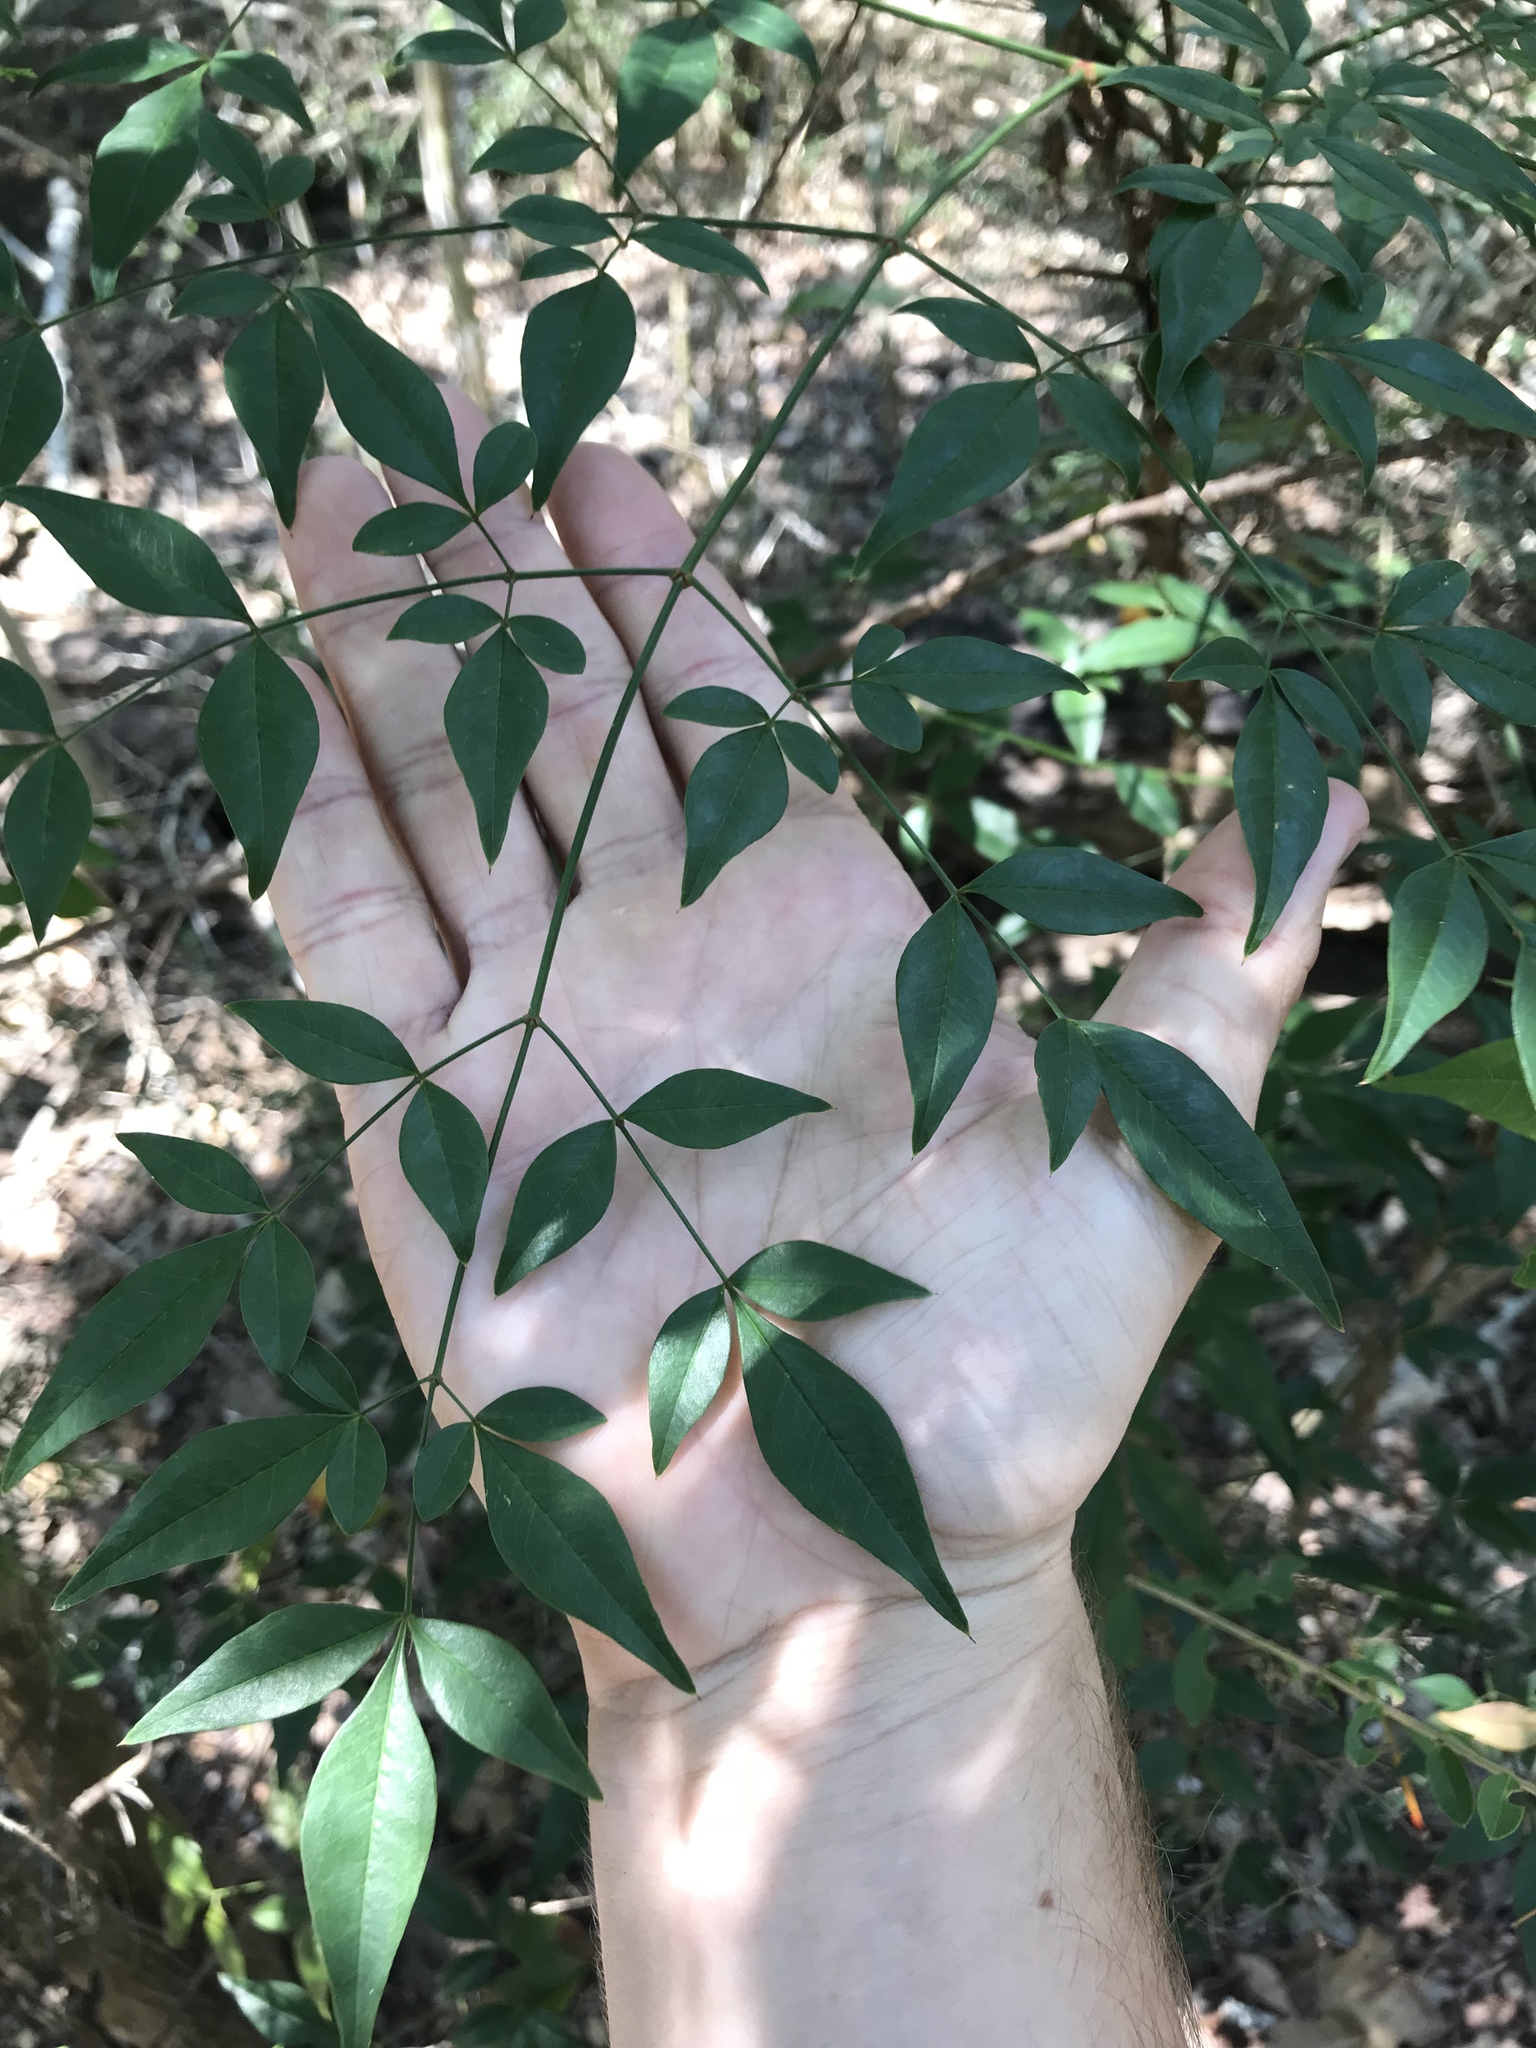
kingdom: Plantae
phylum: Tracheophyta
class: Magnoliopsida
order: Ranunculales
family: Berberidaceae
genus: Nandina
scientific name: Nandina domestica
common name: Sacred bamboo
